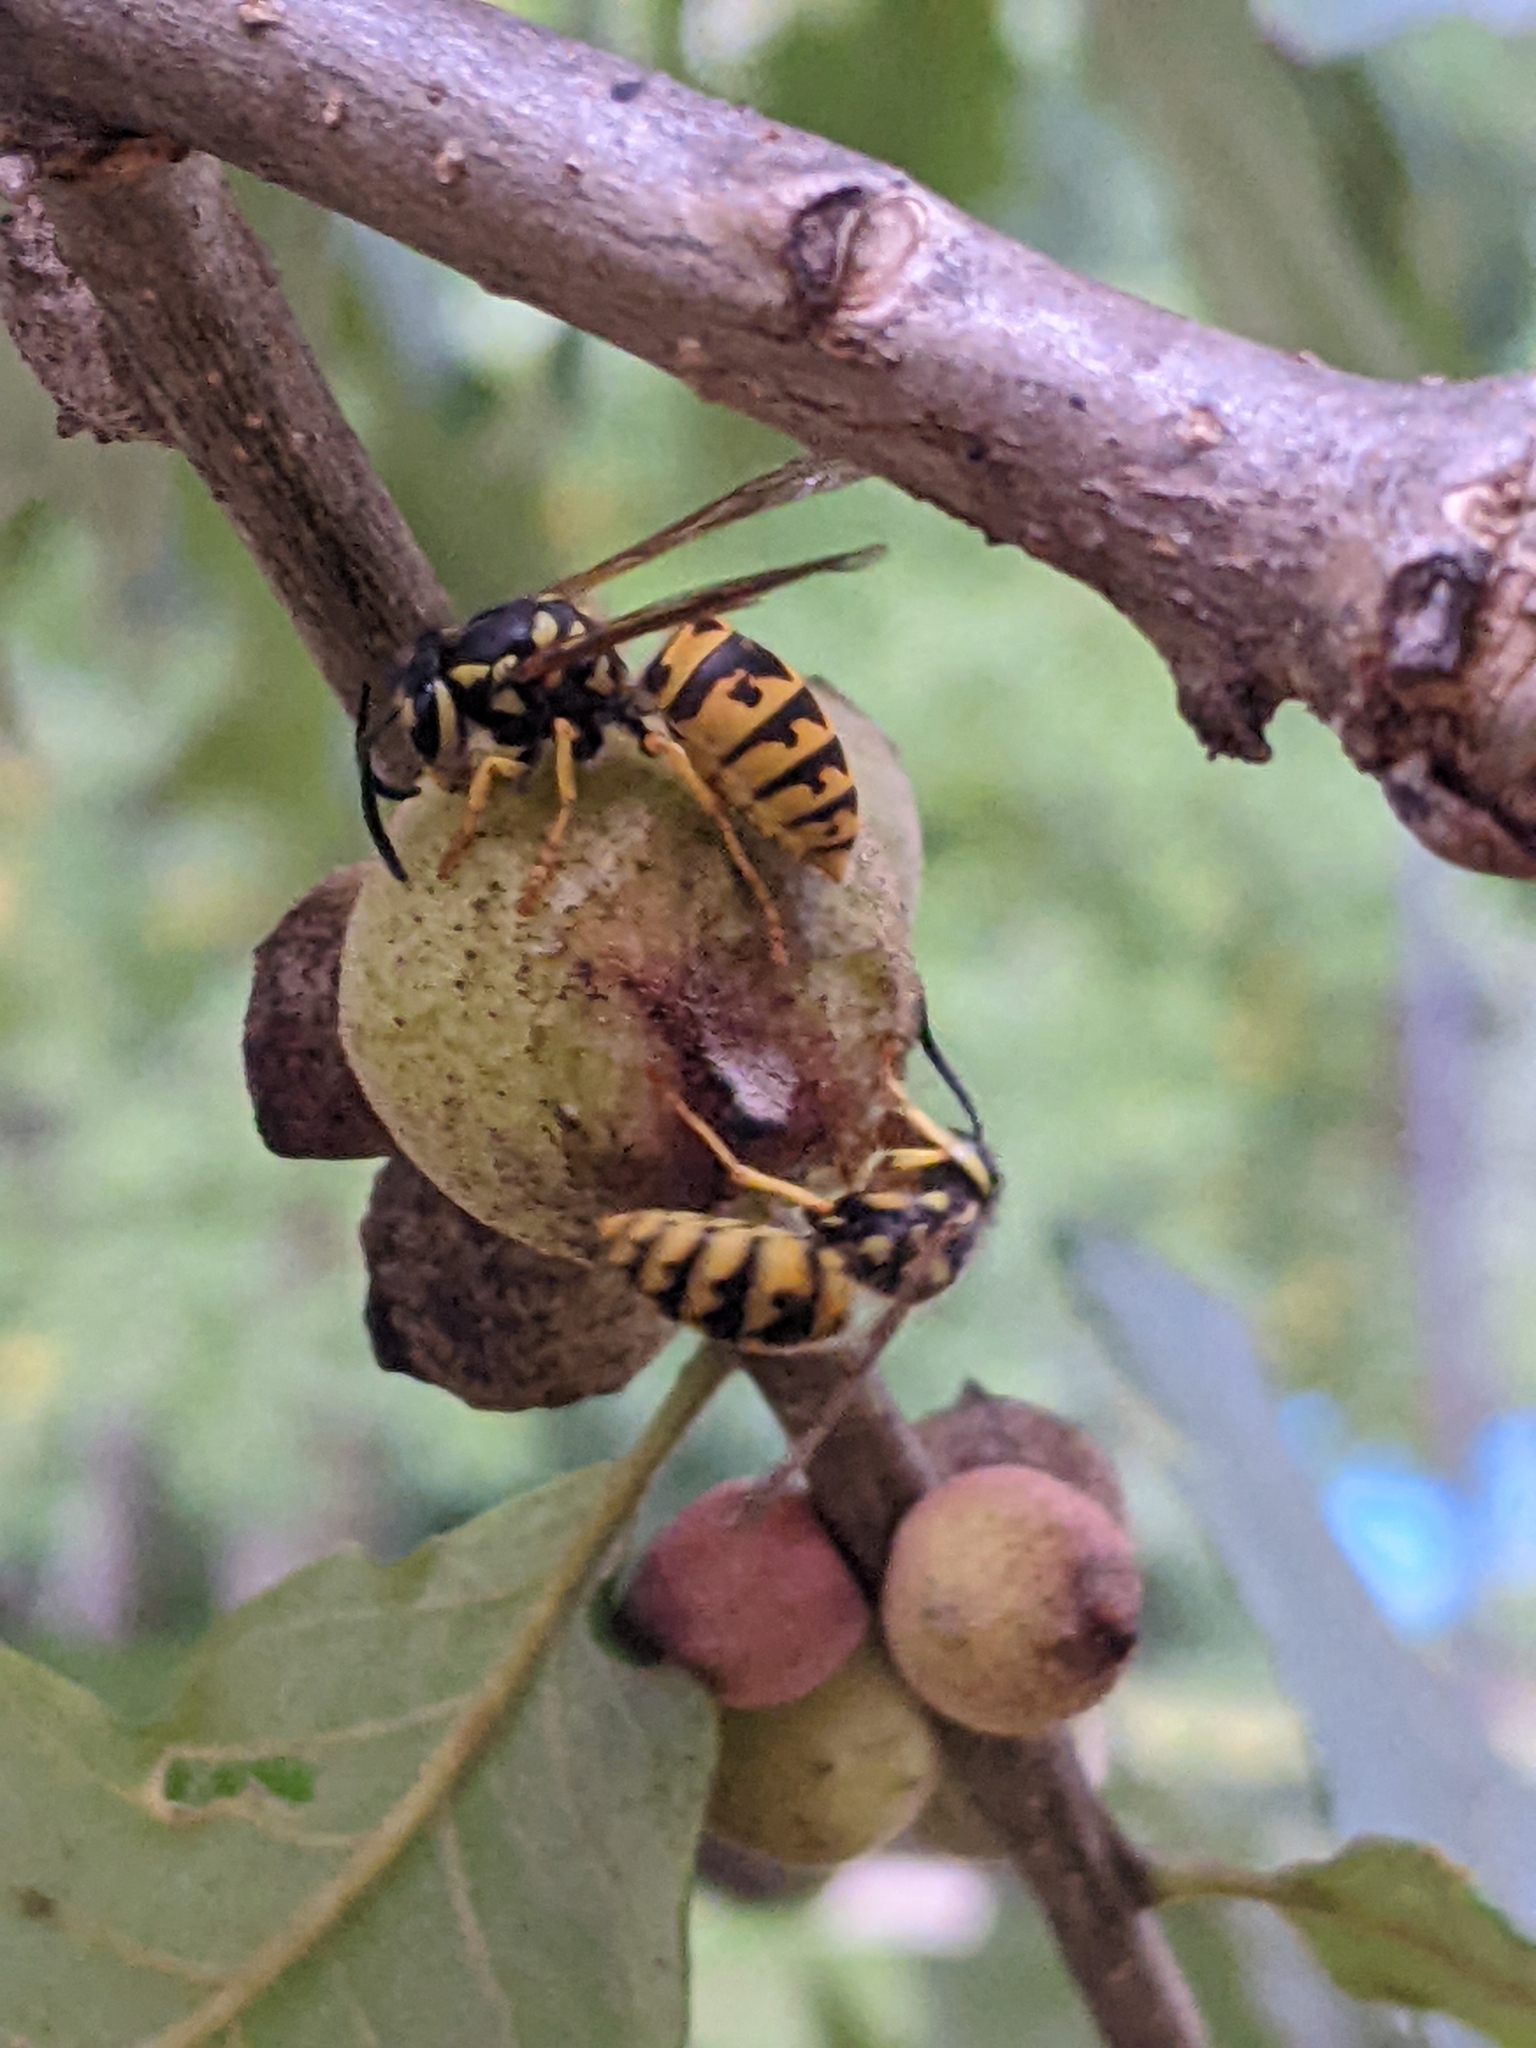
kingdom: Animalia
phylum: Arthropoda
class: Insecta
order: Hymenoptera
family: Vespidae
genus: Vespula
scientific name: Vespula germanica
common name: German wasp
